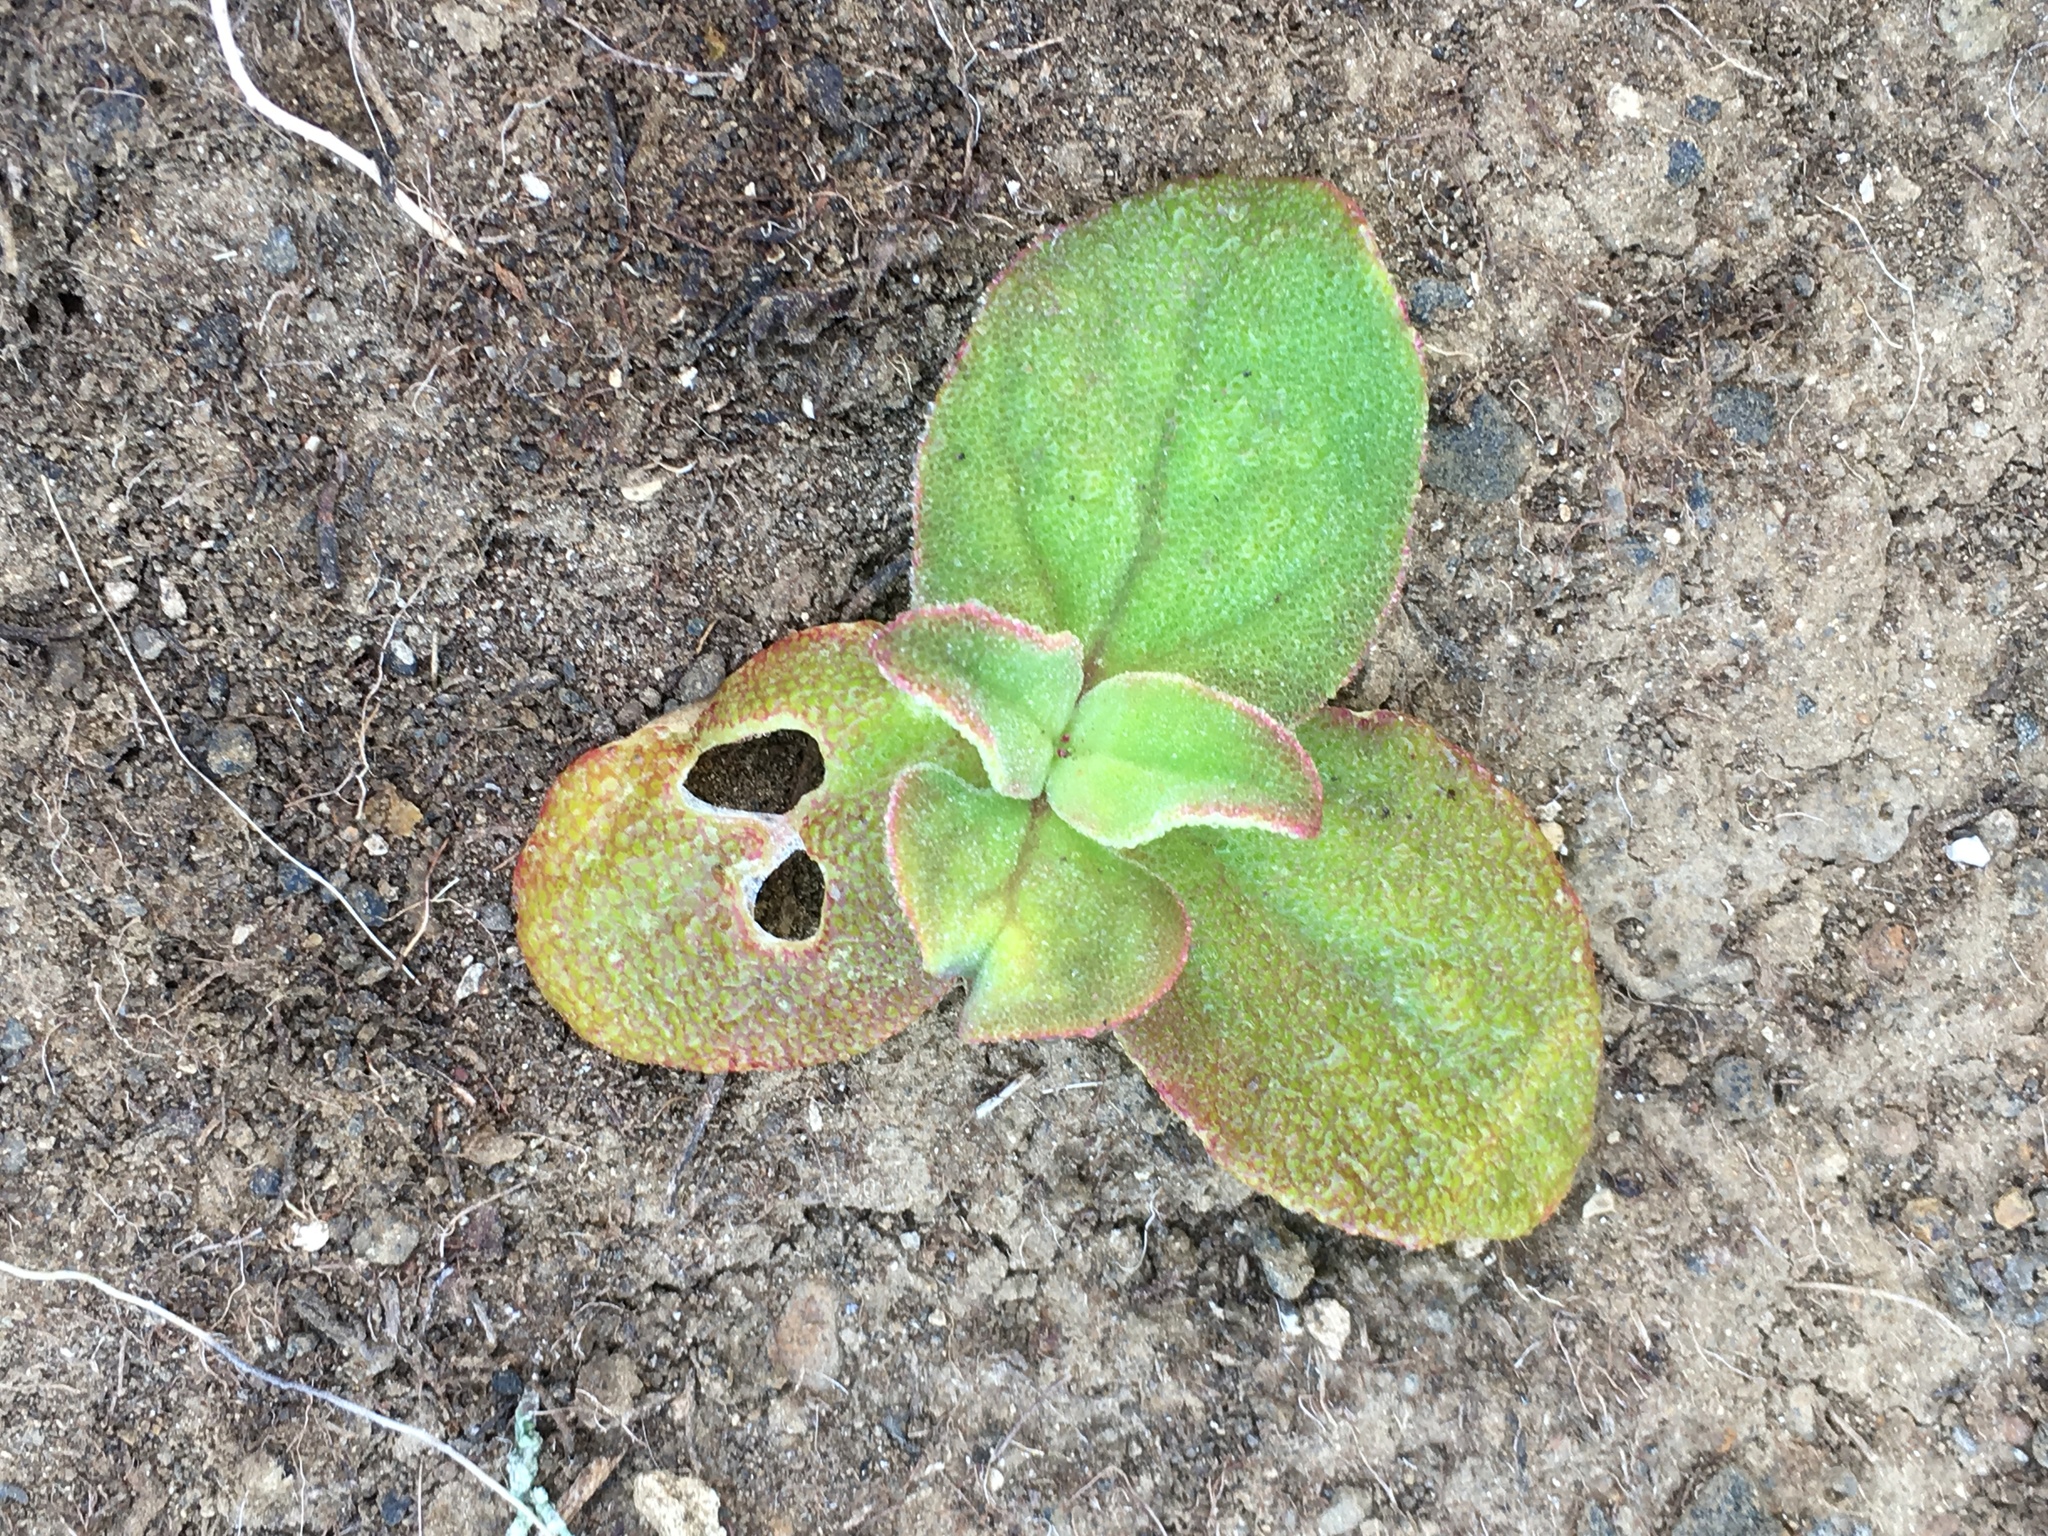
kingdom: Plantae
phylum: Tracheophyta
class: Magnoliopsida
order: Caryophyllales
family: Aizoaceae
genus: Mesembryanthemum
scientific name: Mesembryanthemum crystallinum
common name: Common iceplant
